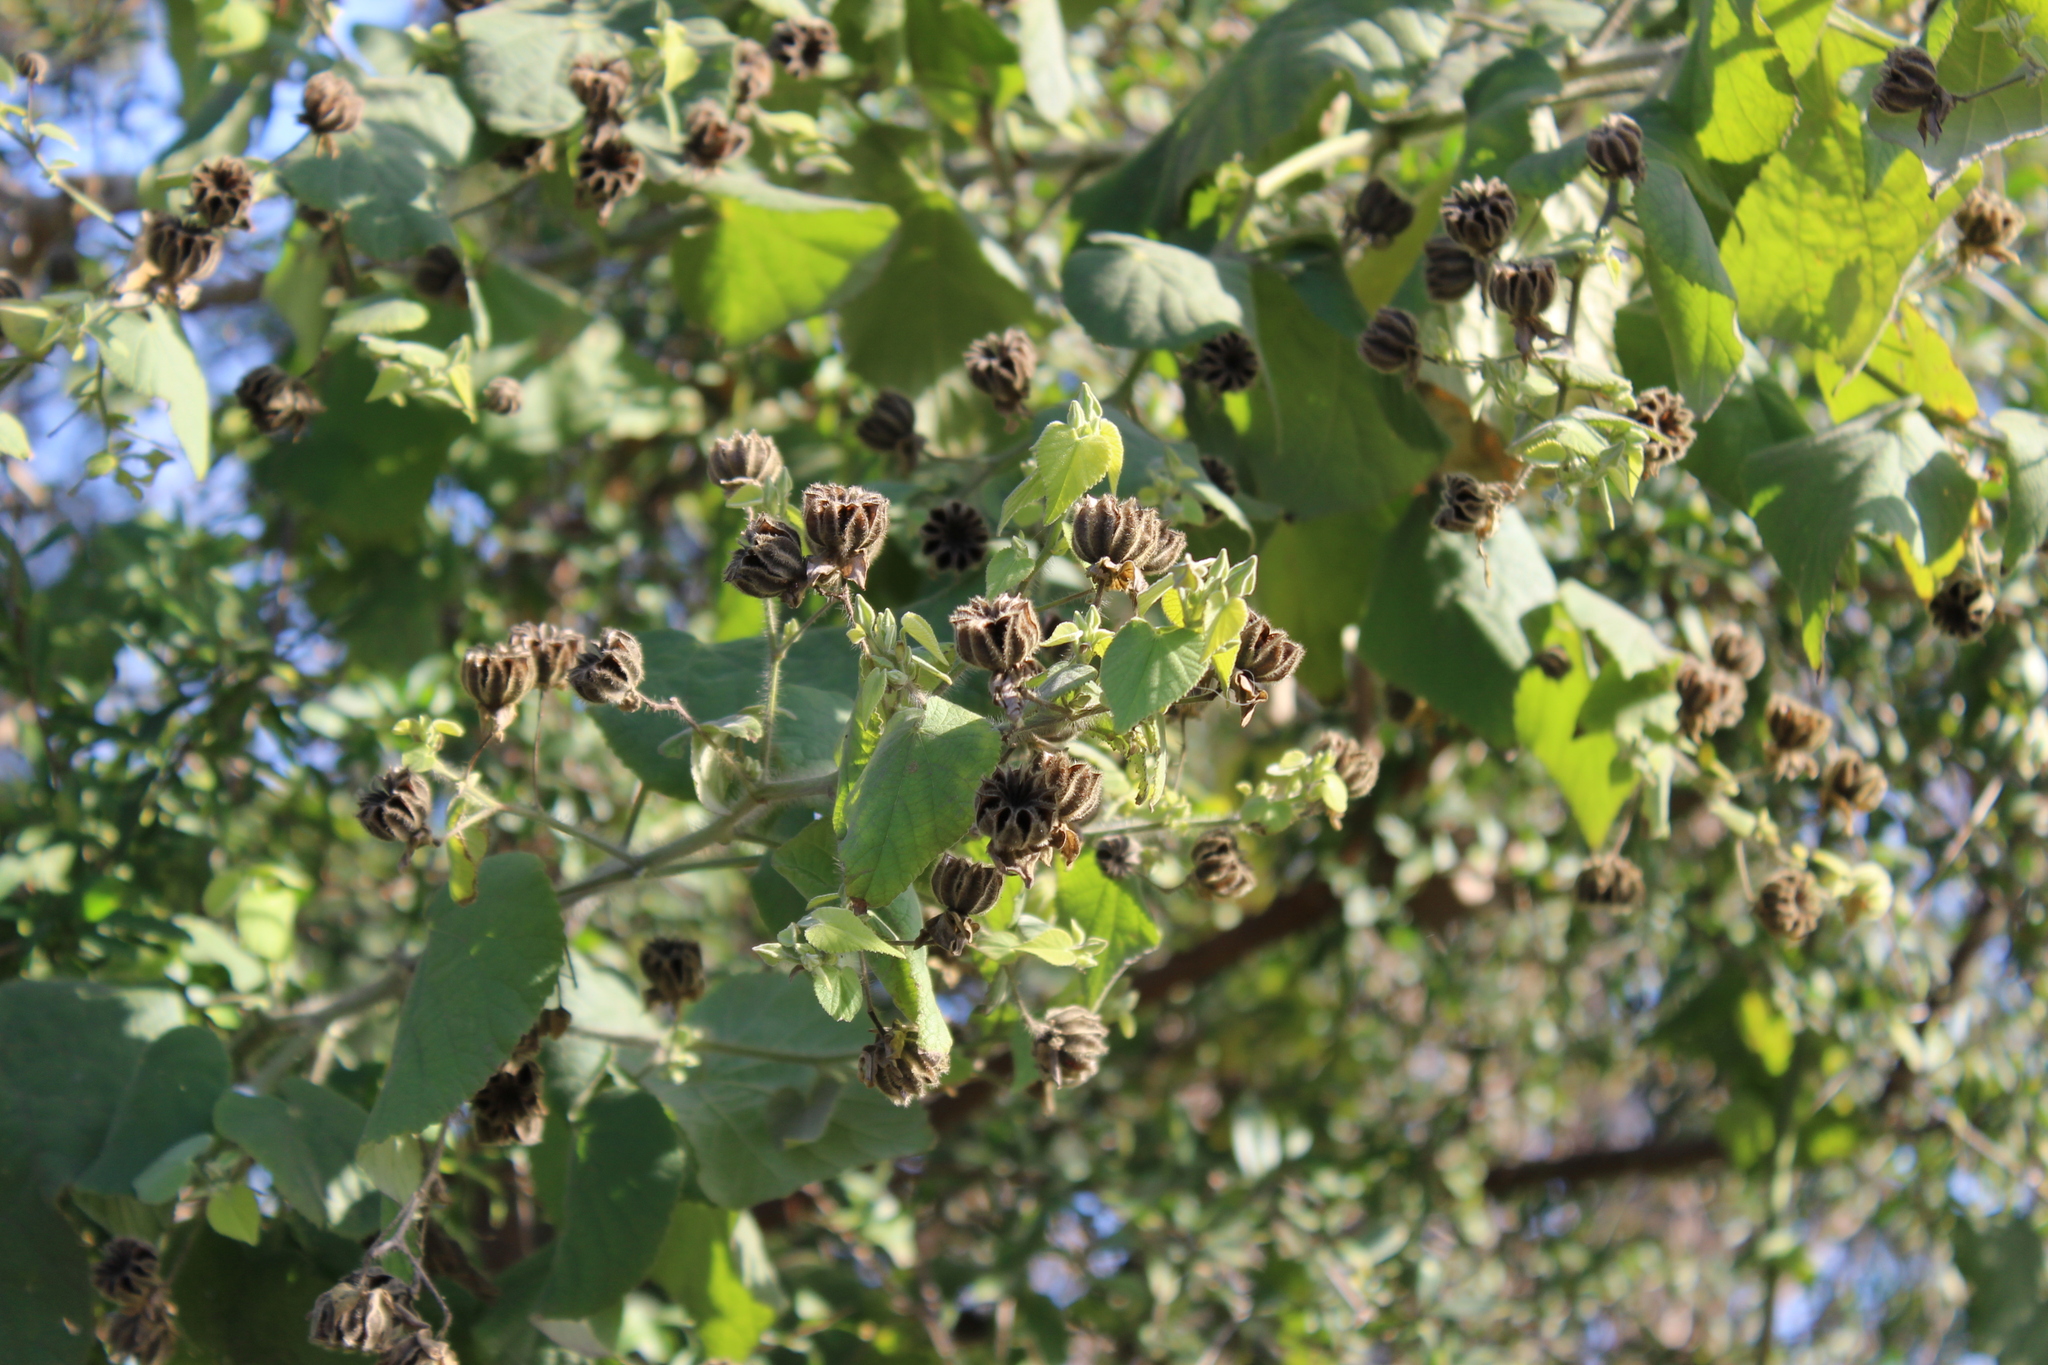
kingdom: Plantae
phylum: Tracheophyta
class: Magnoliopsida
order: Malvales
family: Malvaceae
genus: Abutilon
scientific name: Abutilon grandifolium
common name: Hairy abutilon
